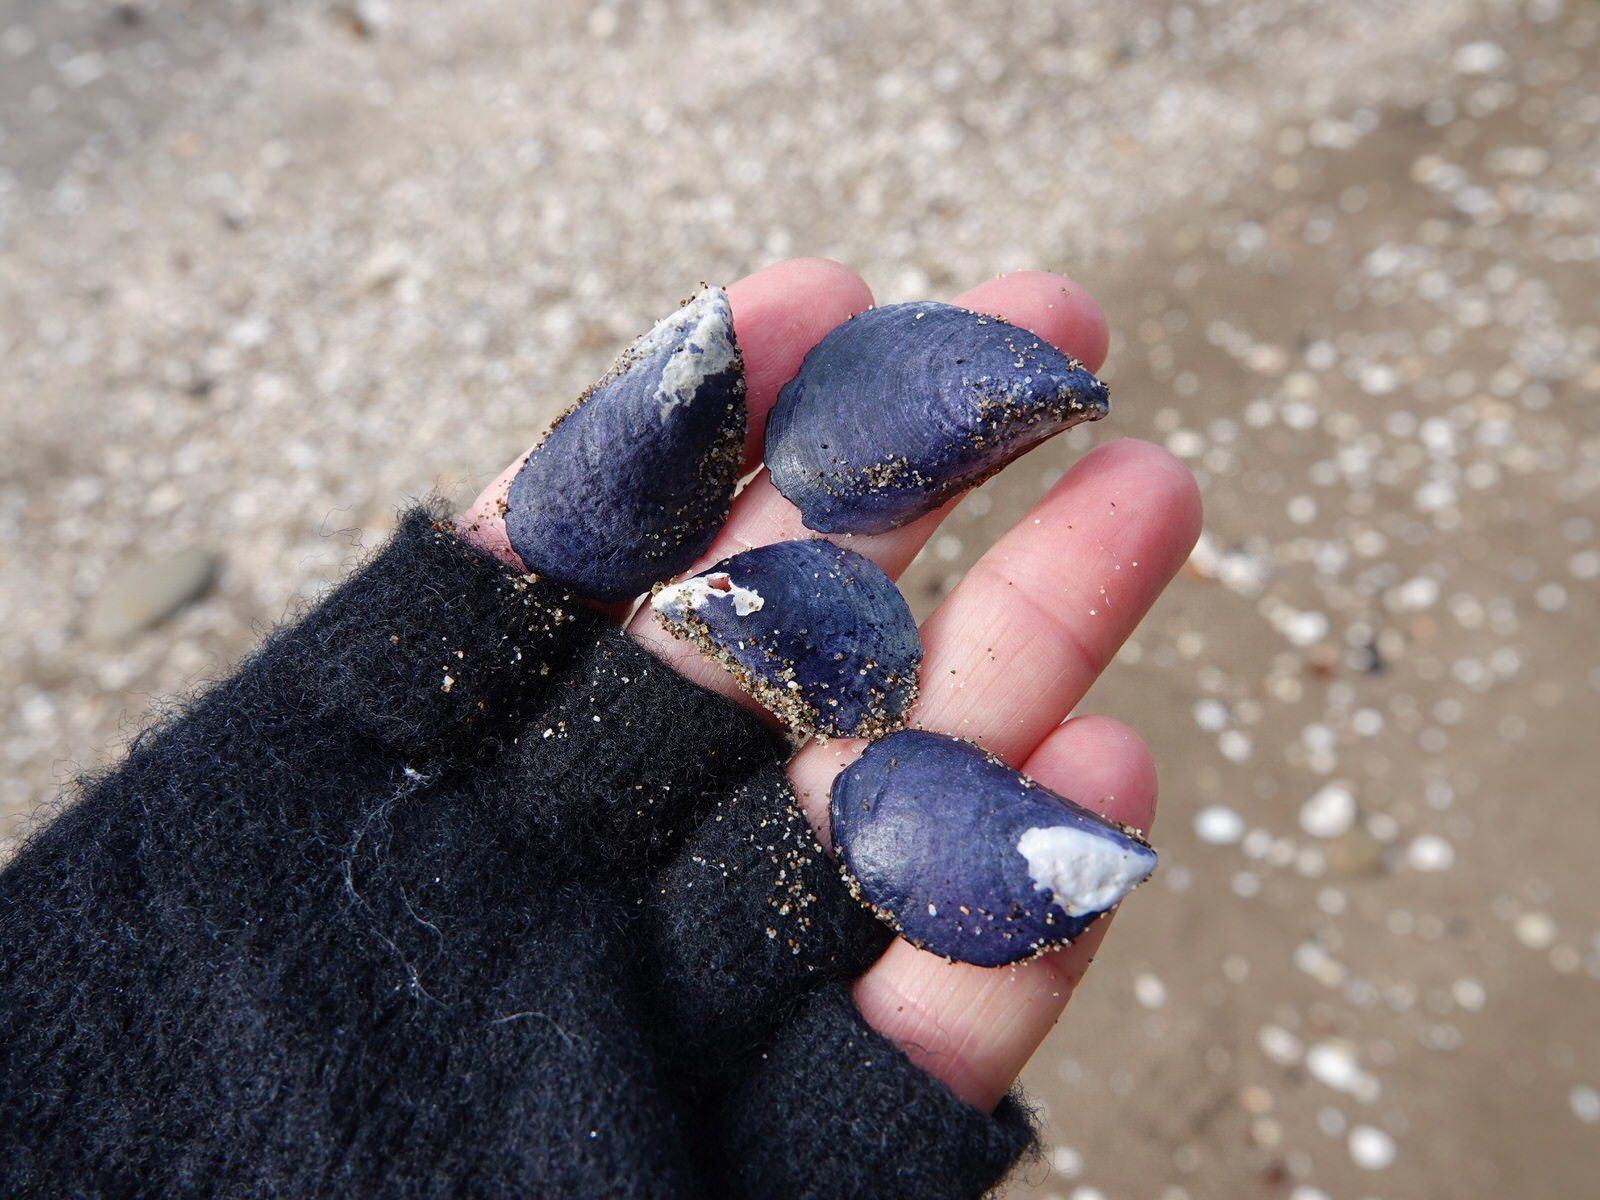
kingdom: Animalia
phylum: Mollusca
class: Bivalvia
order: Mytilida
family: Mytilidae
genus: Mytilus
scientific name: Mytilus planulatus
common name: Australian mussel
